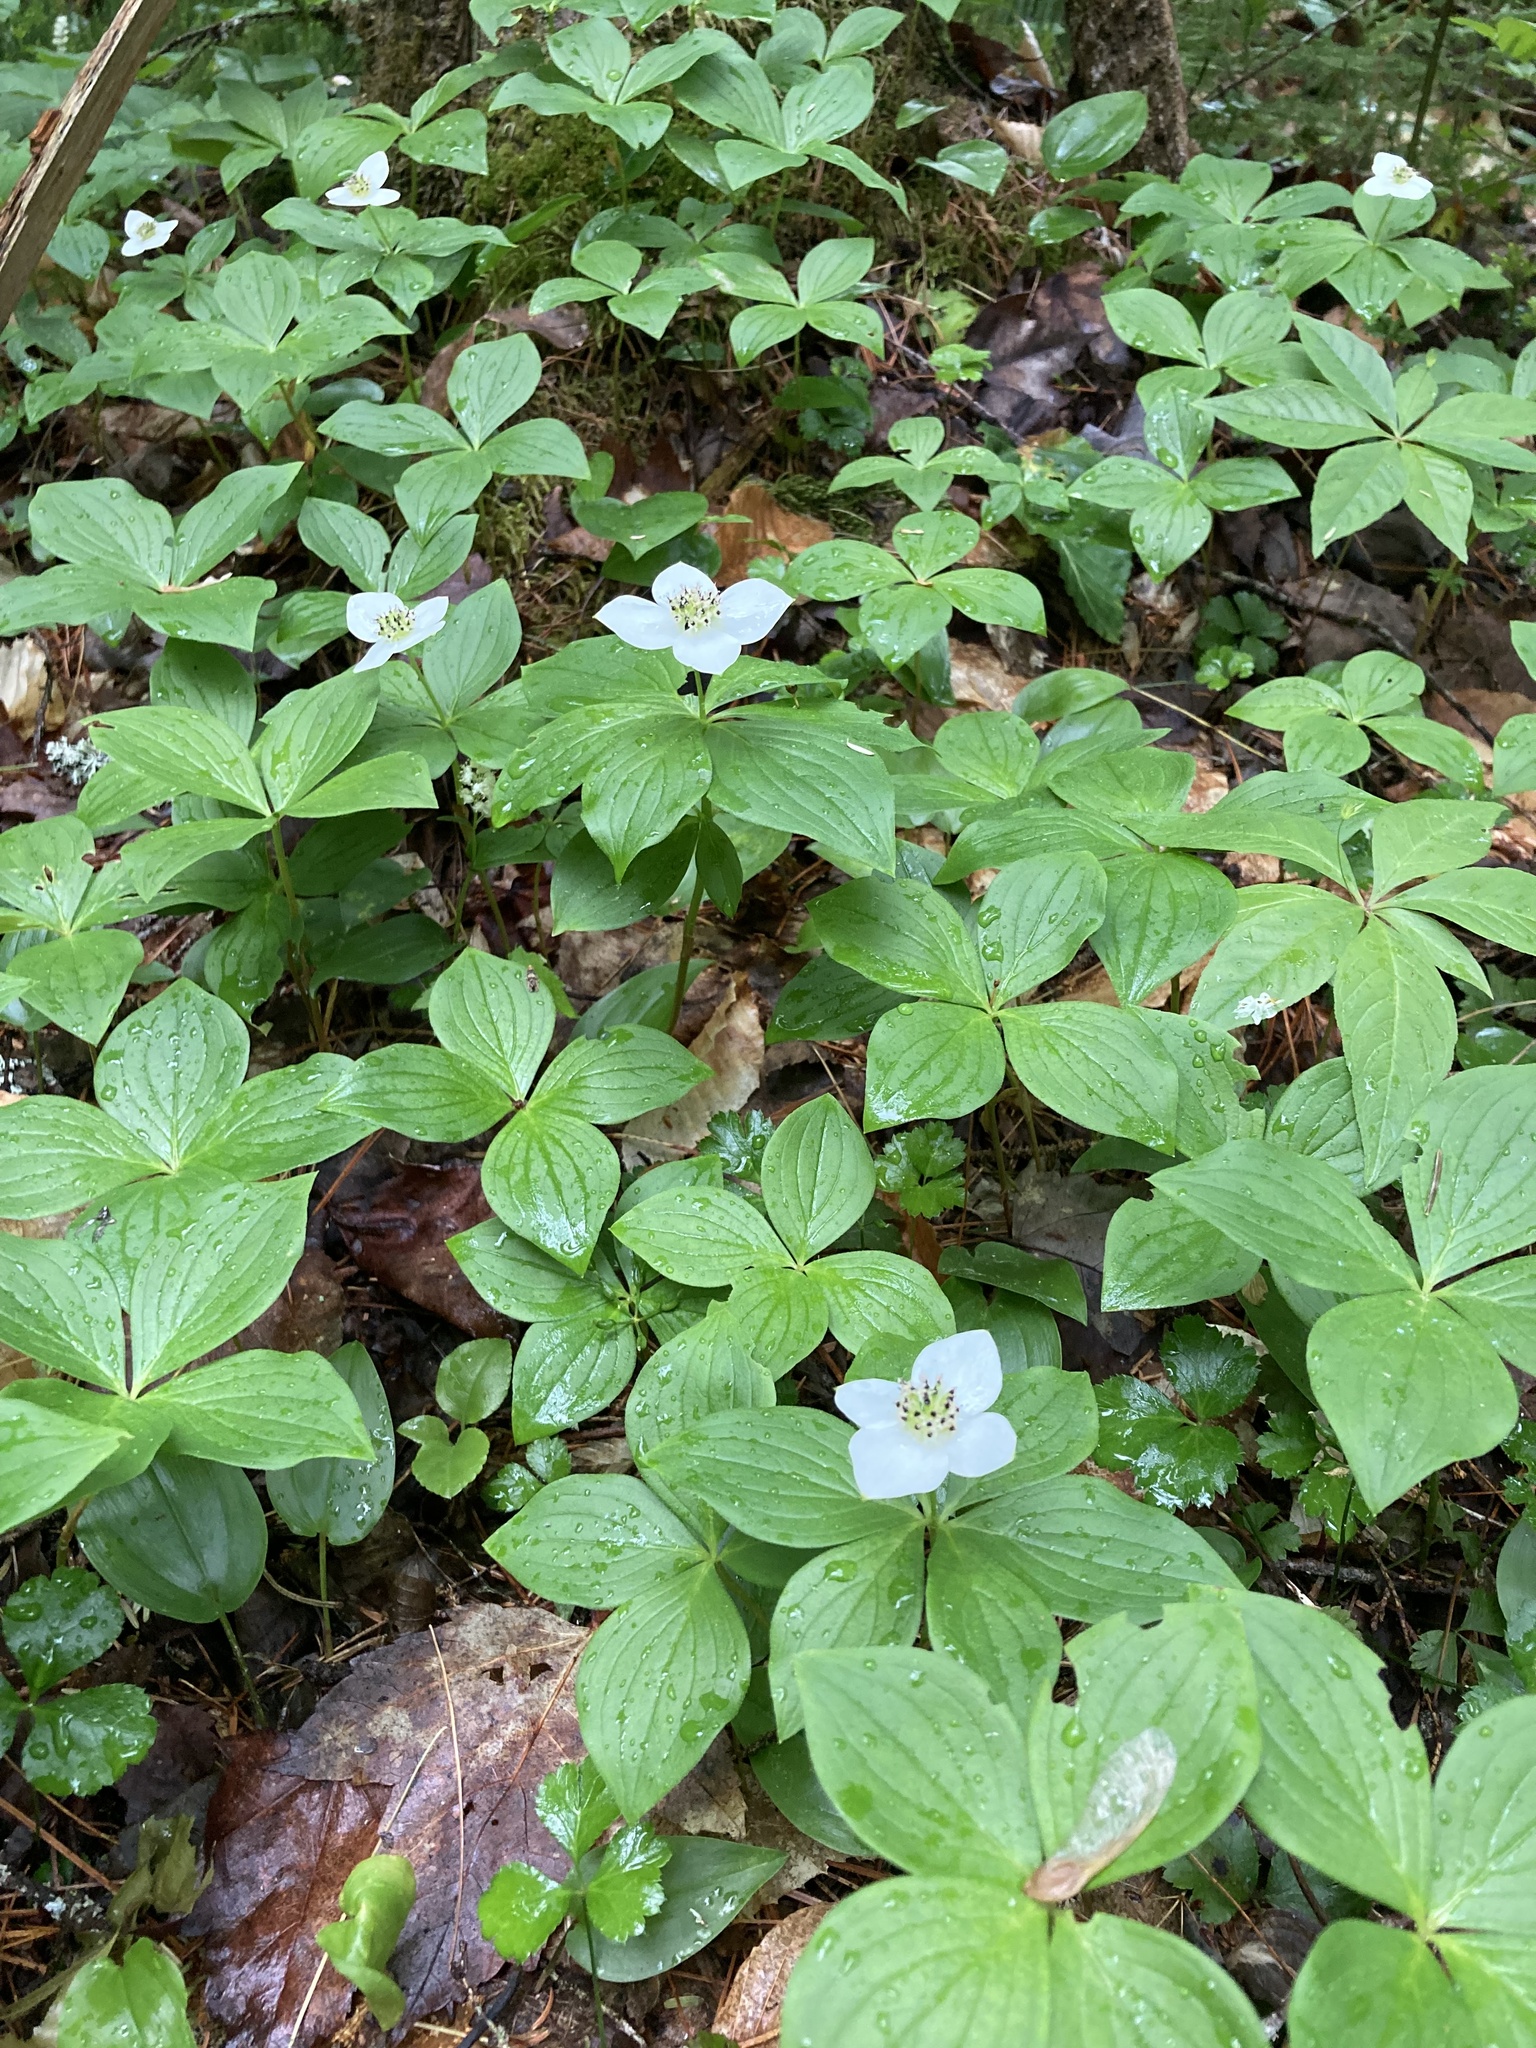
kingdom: Plantae
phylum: Tracheophyta
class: Magnoliopsida
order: Cornales
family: Cornaceae
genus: Cornus
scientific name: Cornus canadensis
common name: Creeping dogwood
